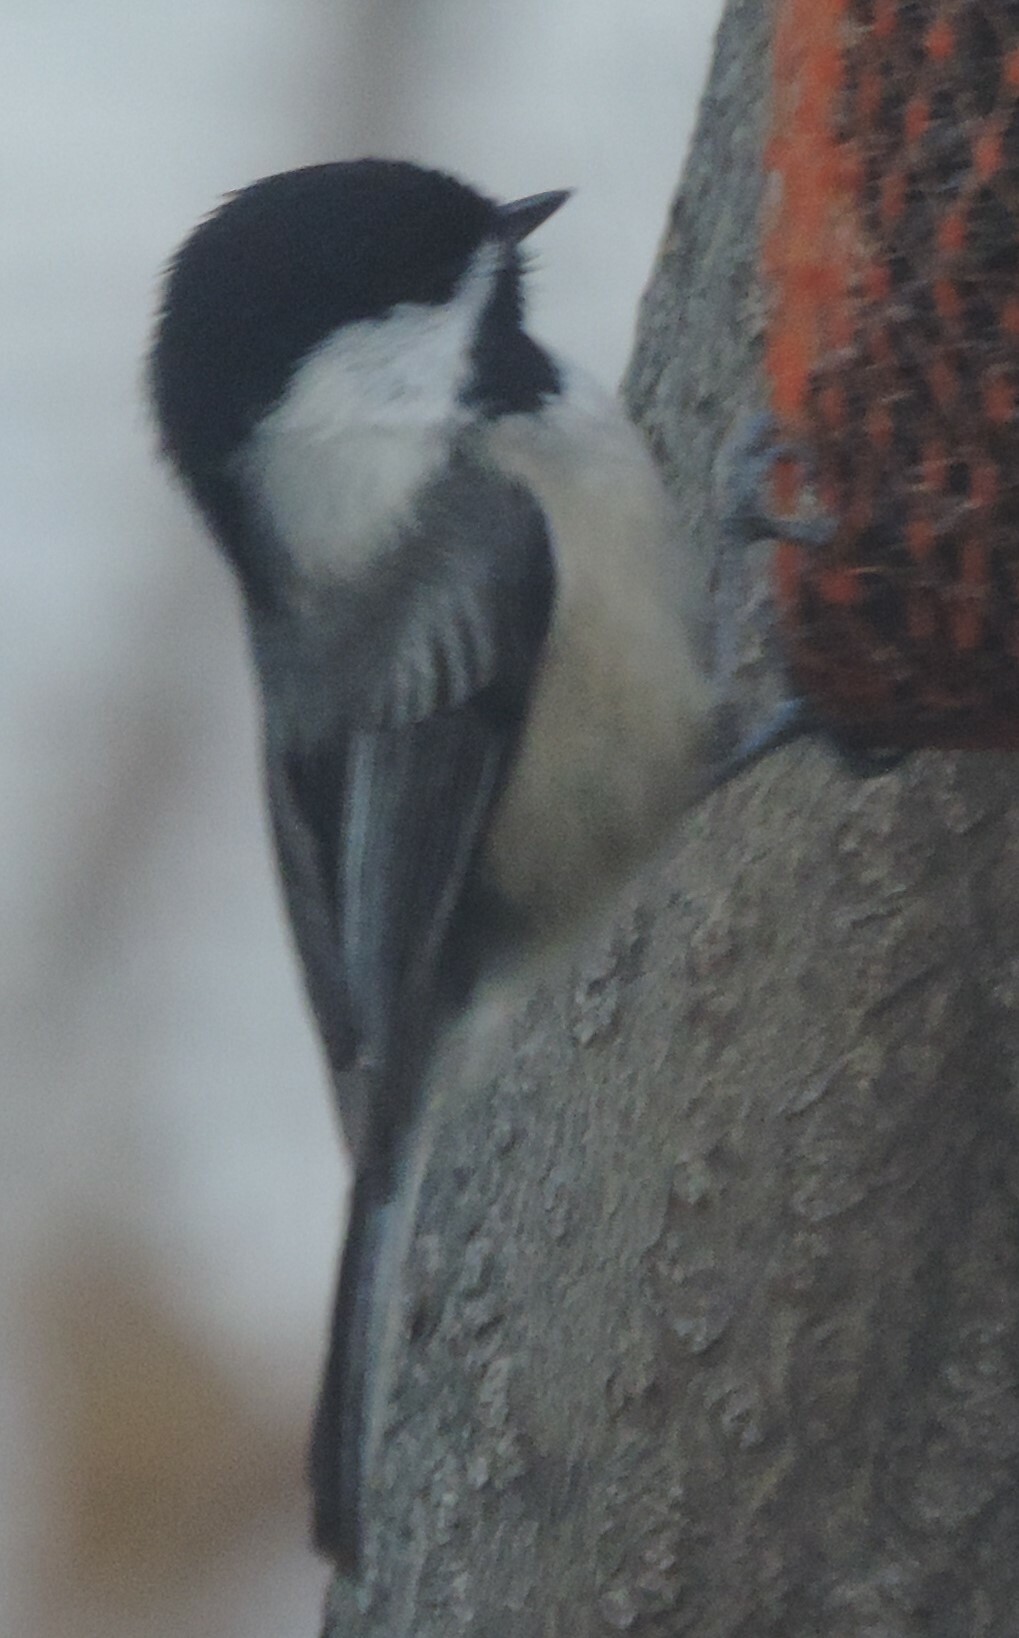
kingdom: Animalia
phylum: Chordata
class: Aves
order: Passeriformes
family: Paridae
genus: Poecile
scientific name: Poecile atricapillus
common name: Black-capped chickadee
